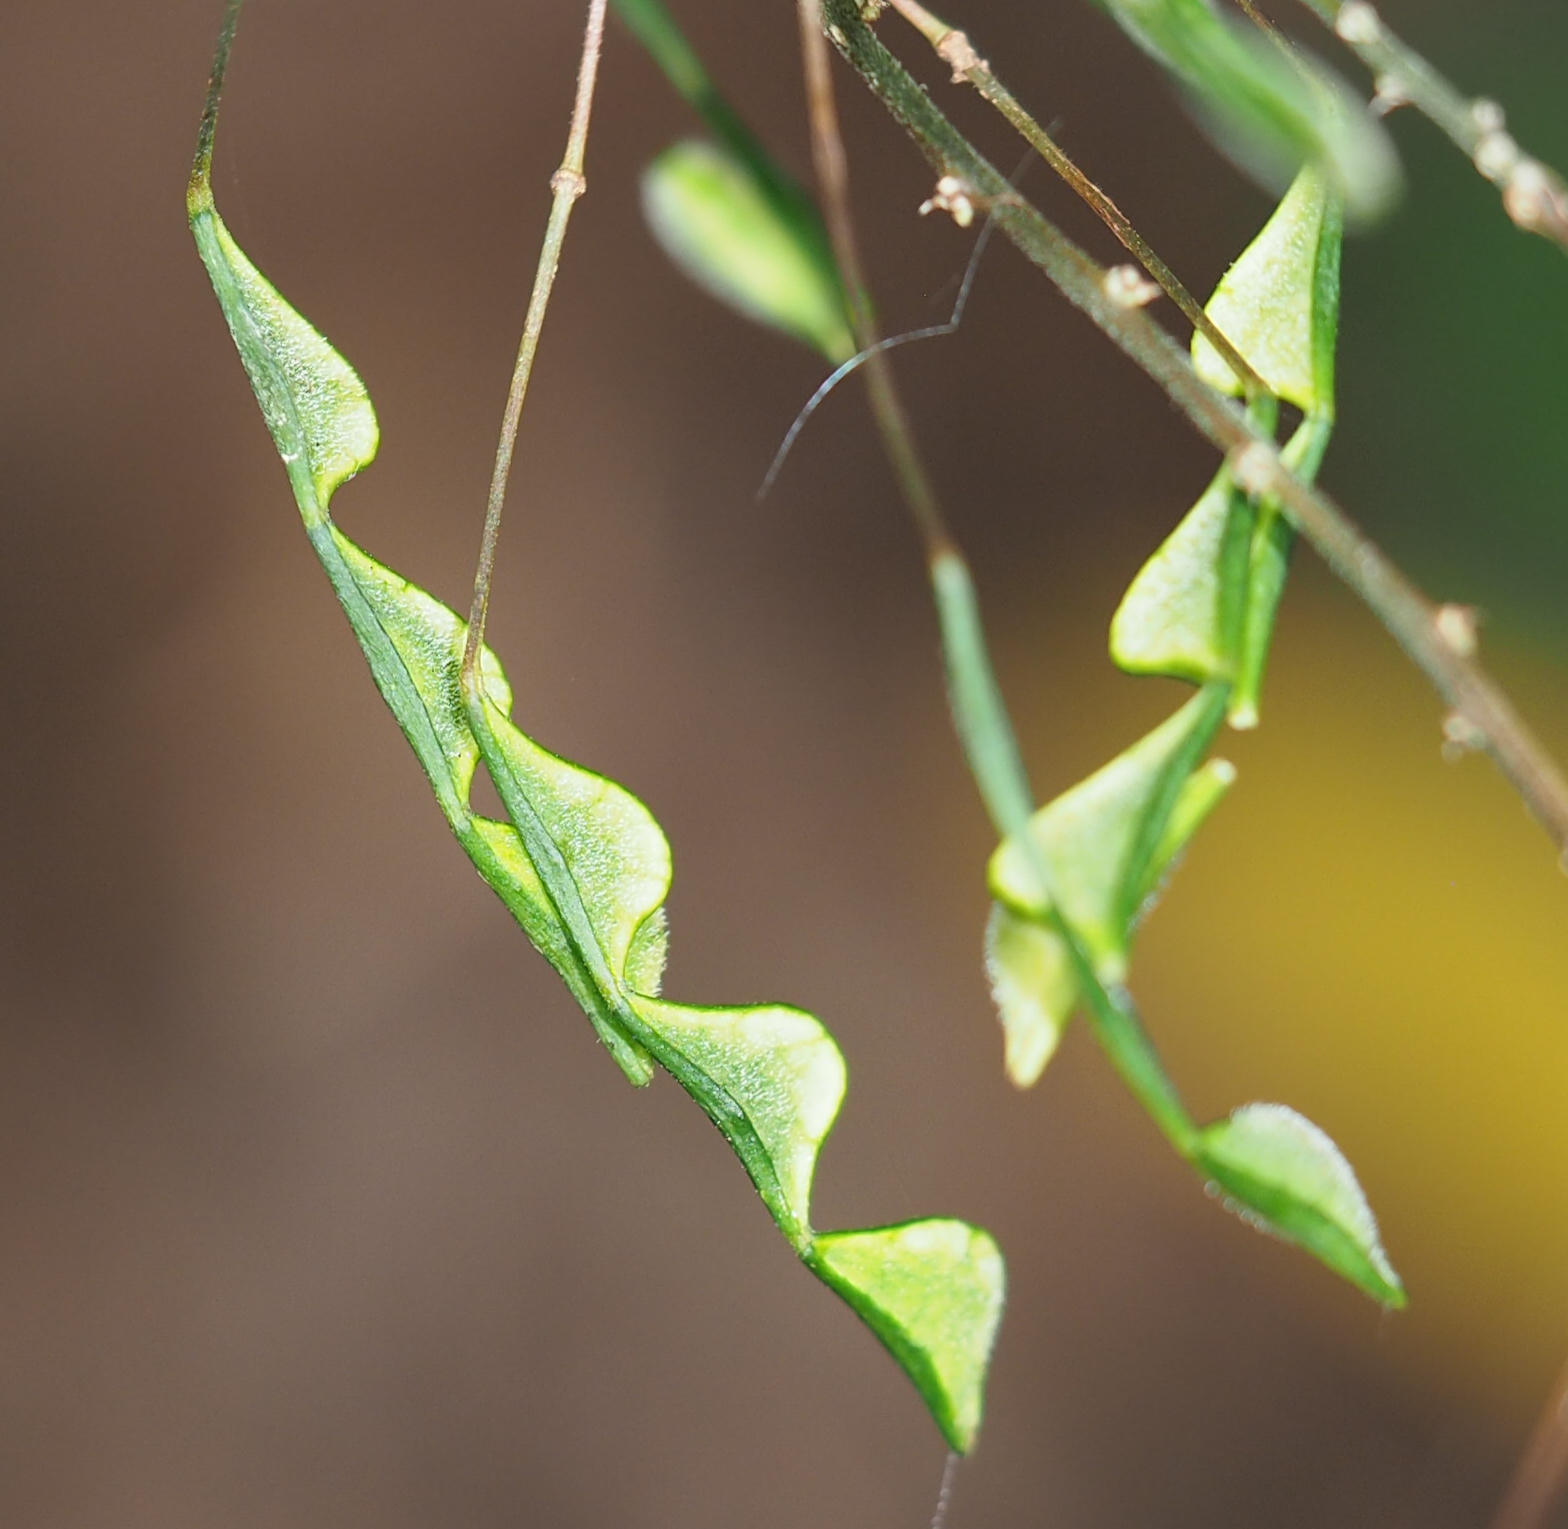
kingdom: Plantae
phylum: Tracheophyta
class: Magnoliopsida
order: Fabales
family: Fabaceae
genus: Hylodesmum
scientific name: Hylodesmum nudiflorum
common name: Bare-stemmed tick-trefoil
